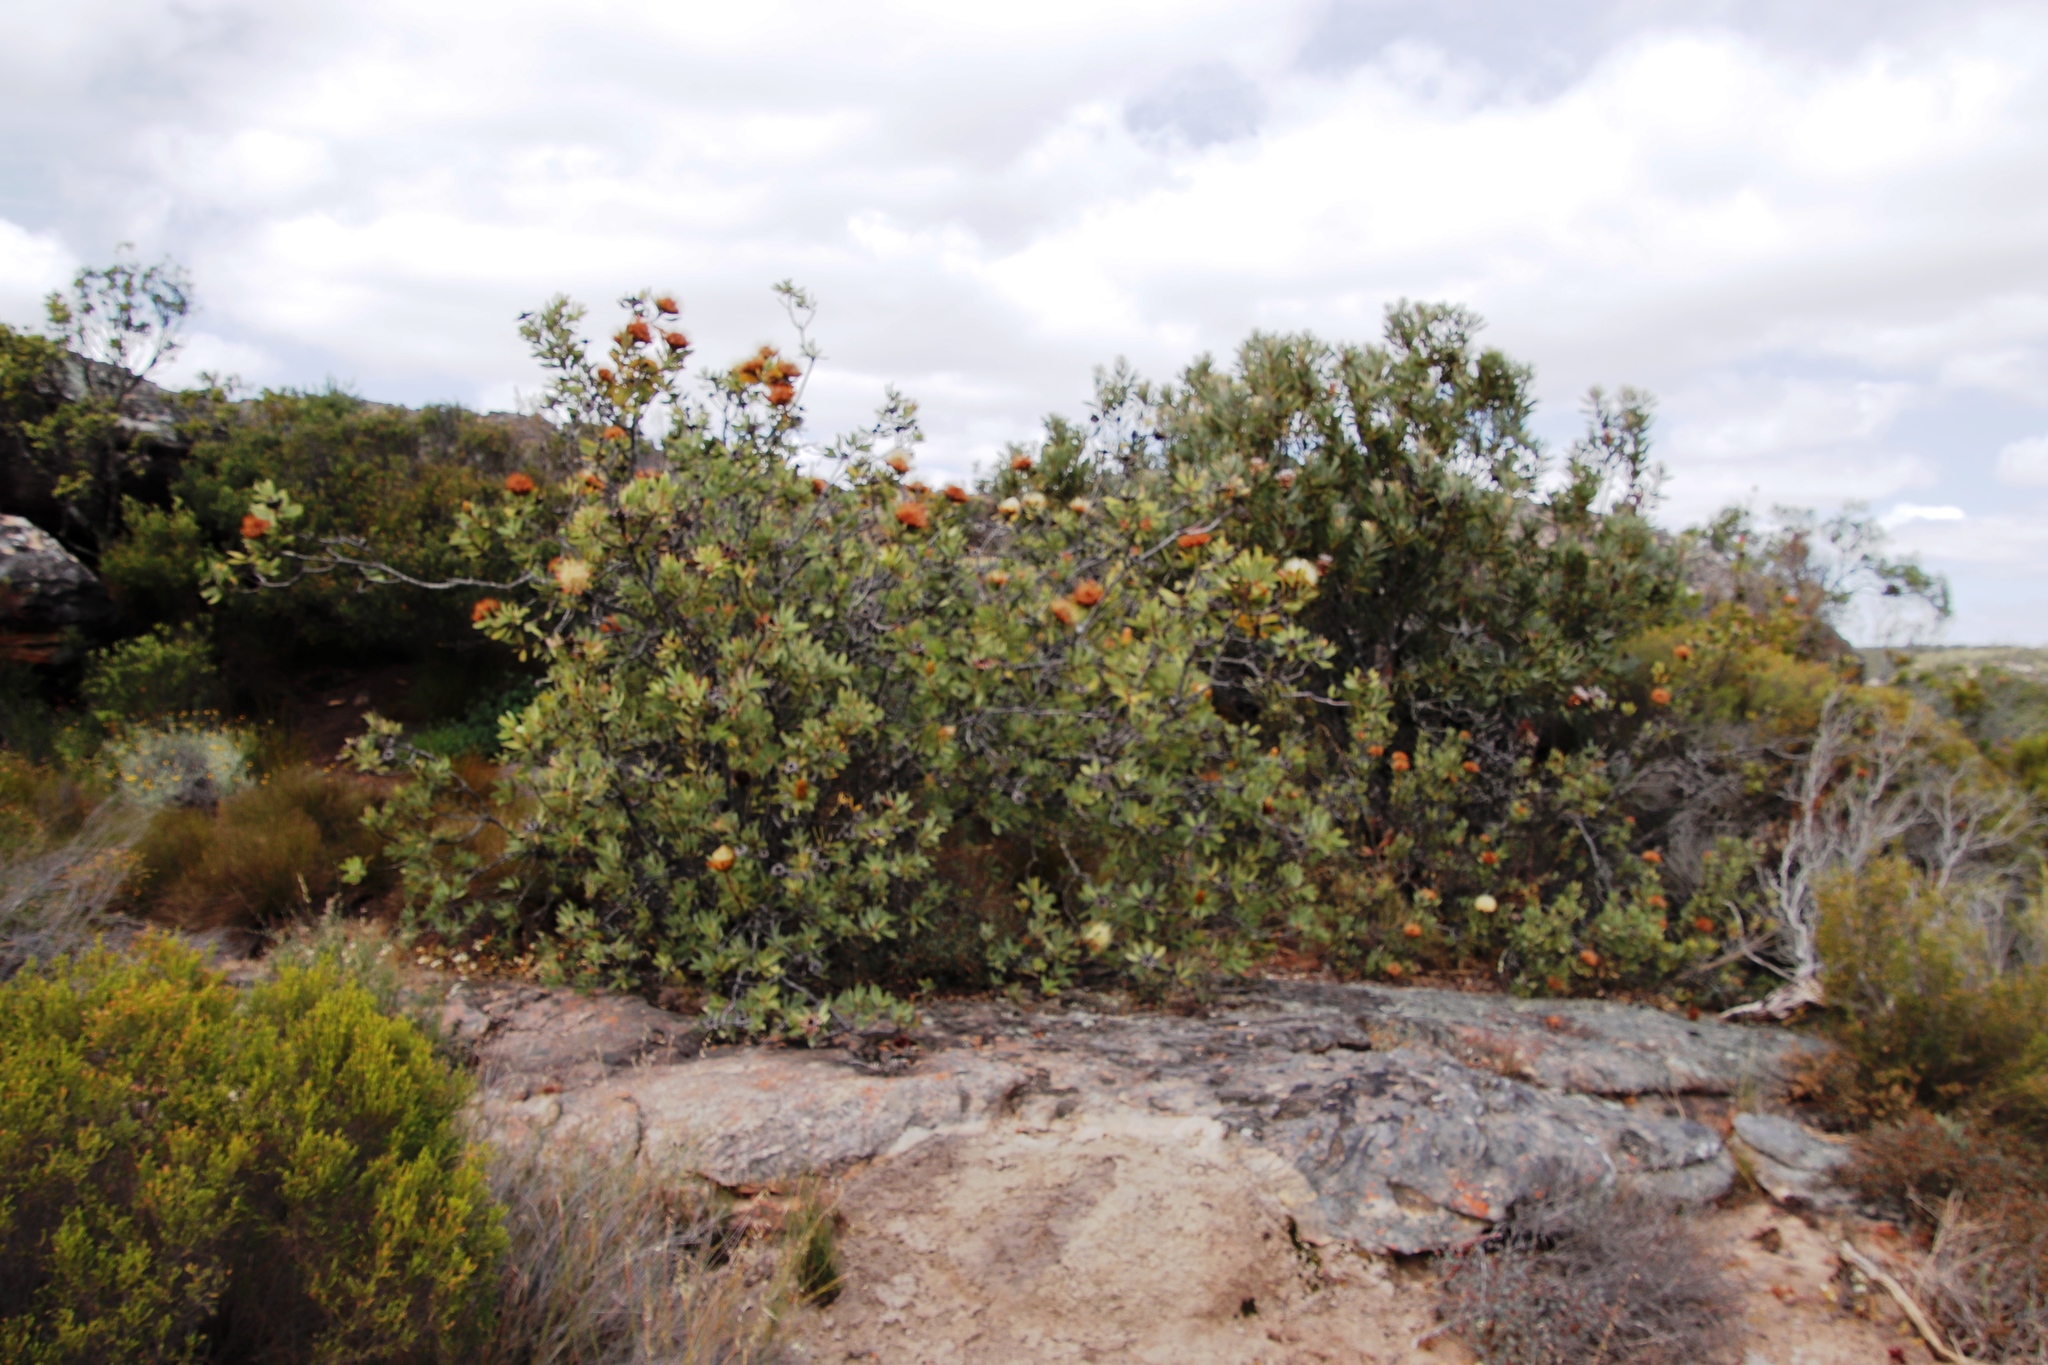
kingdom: Plantae
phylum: Tracheophyta
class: Magnoliopsida
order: Proteales
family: Proteaceae
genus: Protea
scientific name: Protea glabra
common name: Chestnut sugarbush
